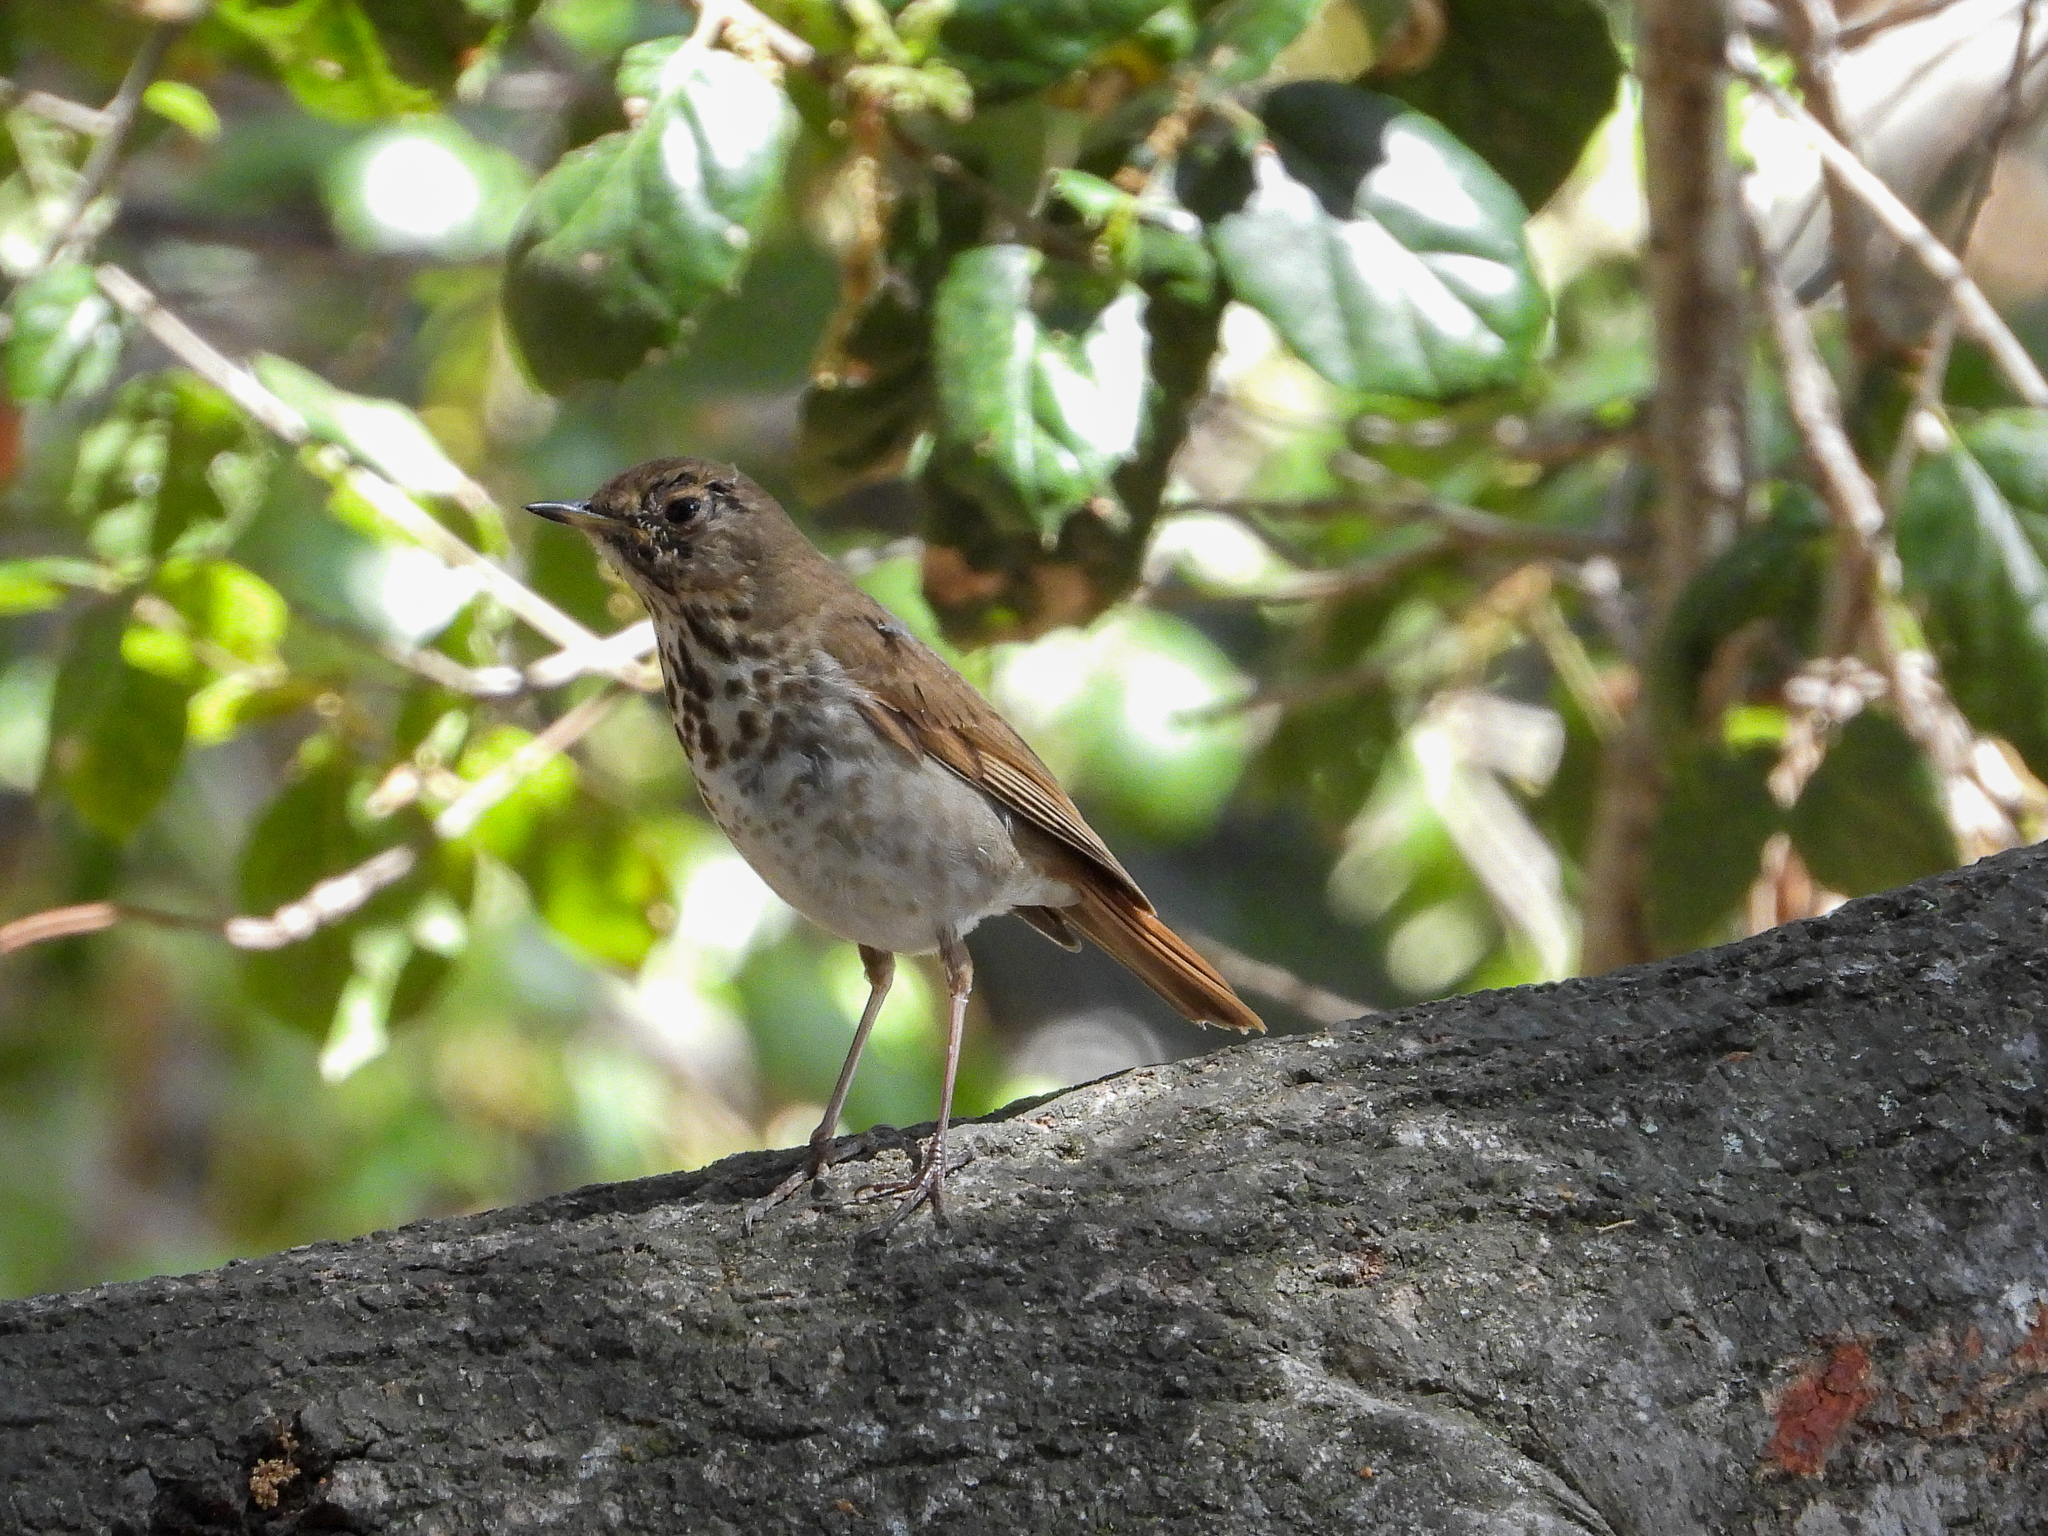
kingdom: Animalia
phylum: Chordata
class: Aves
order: Passeriformes
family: Turdidae
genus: Catharus
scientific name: Catharus guttatus
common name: Hermit thrush
